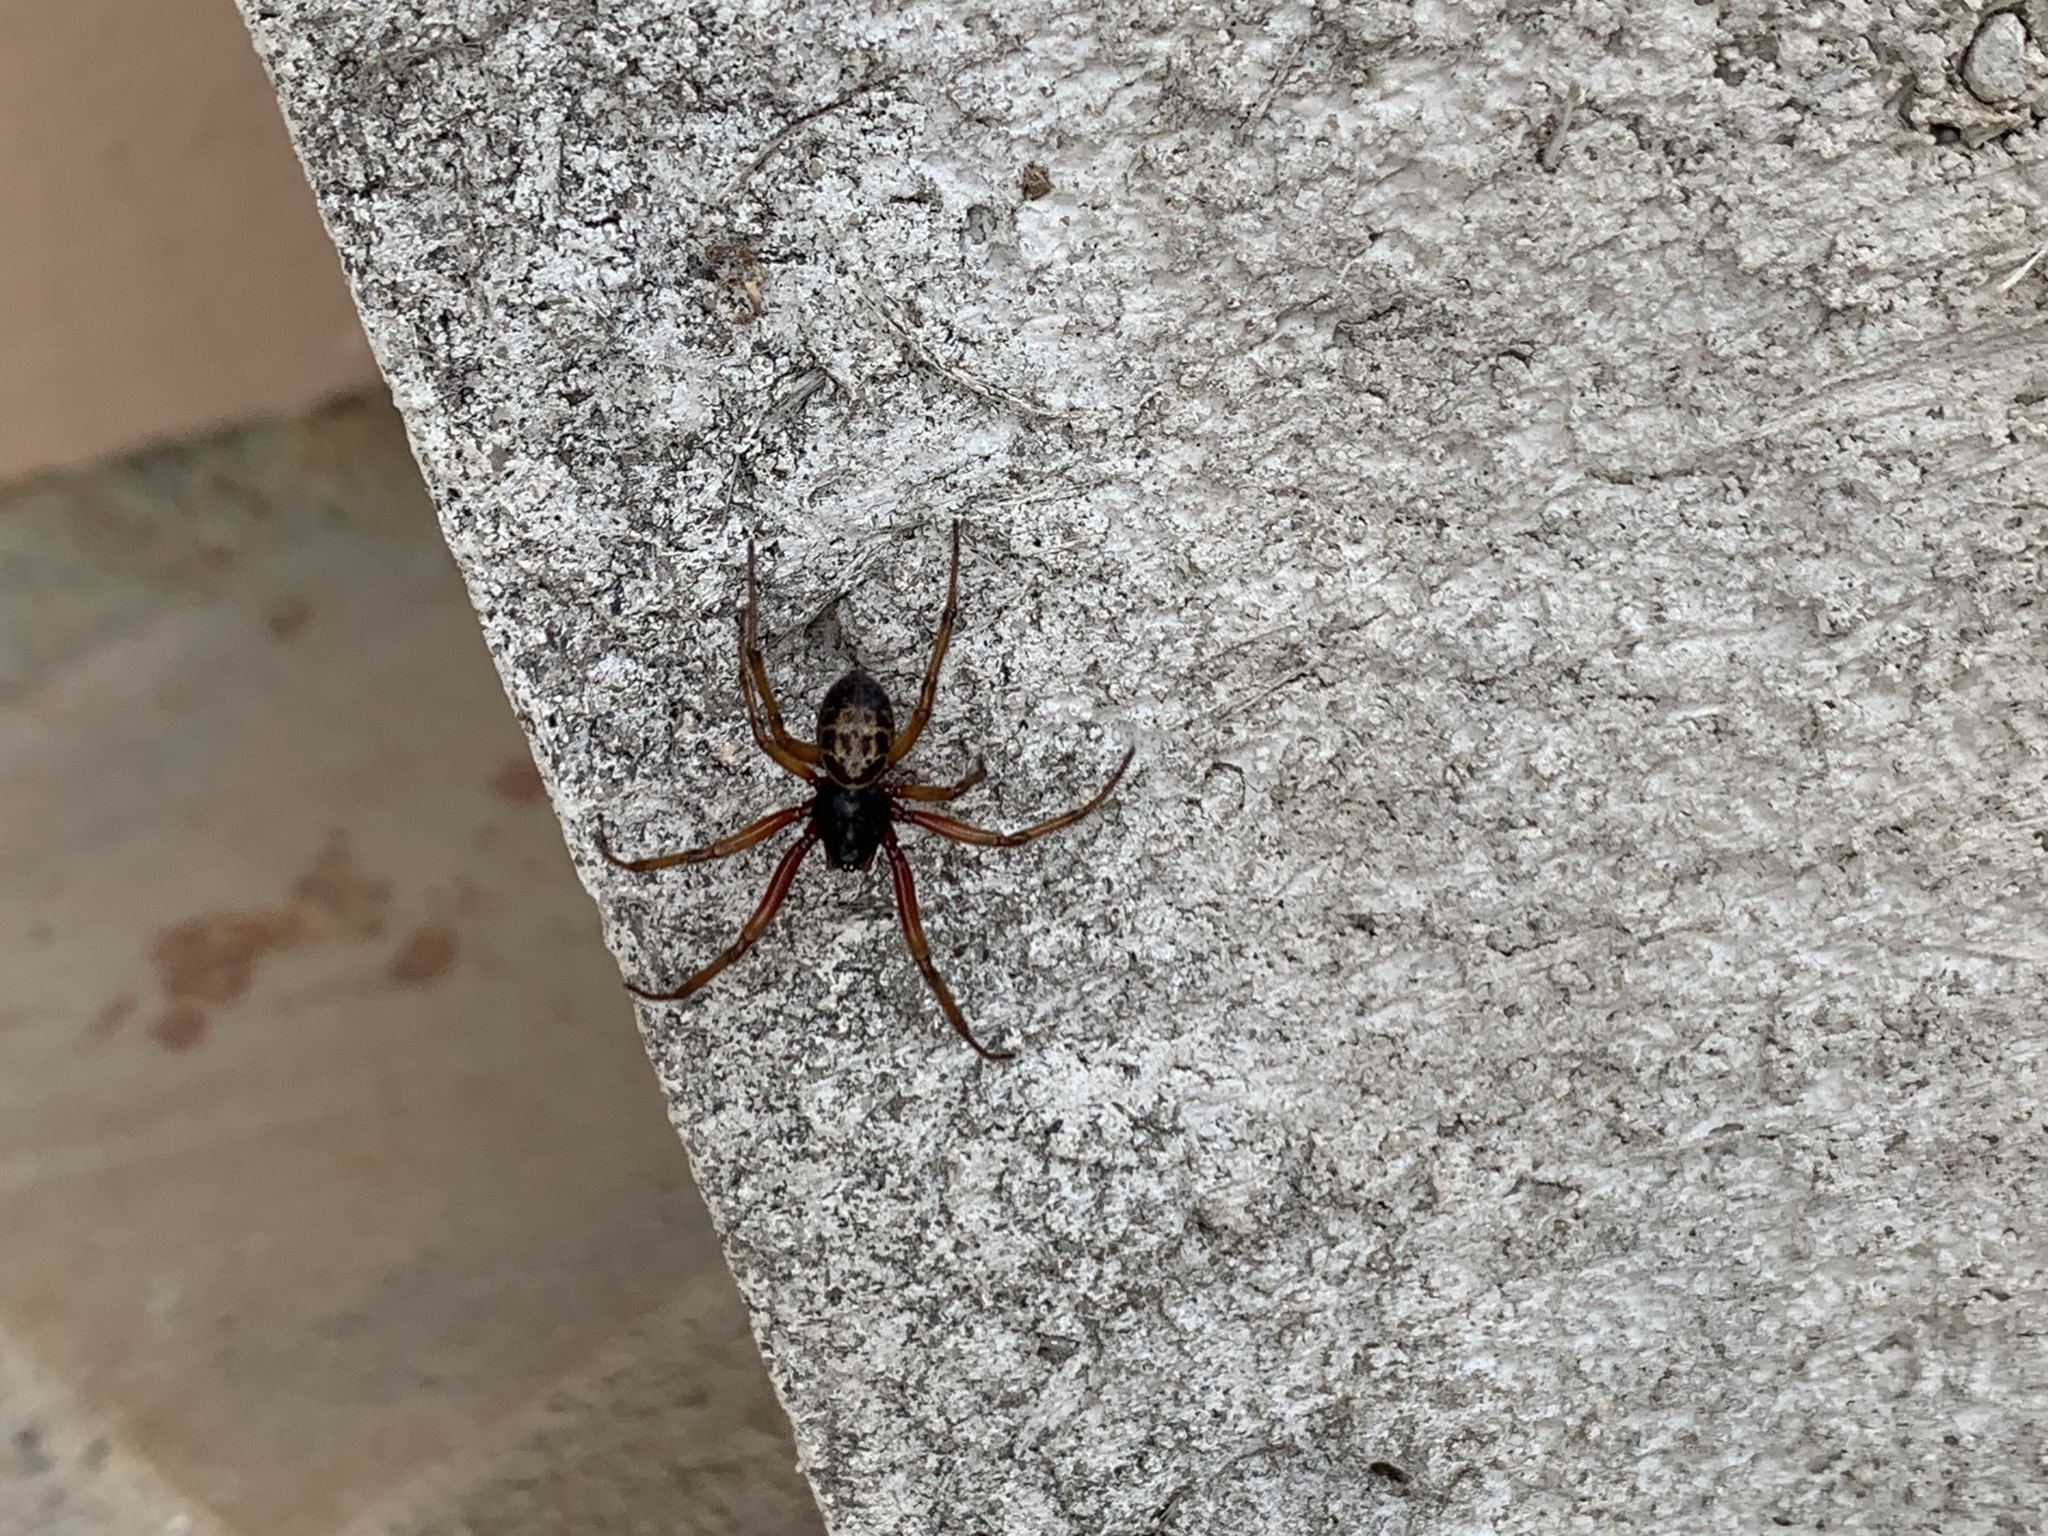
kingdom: Animalia
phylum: Arthropoda
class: Arachnida
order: Araneae
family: Theridiidae
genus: Steatoda
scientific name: Steatoda nobilis
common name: Cobweb weaver
